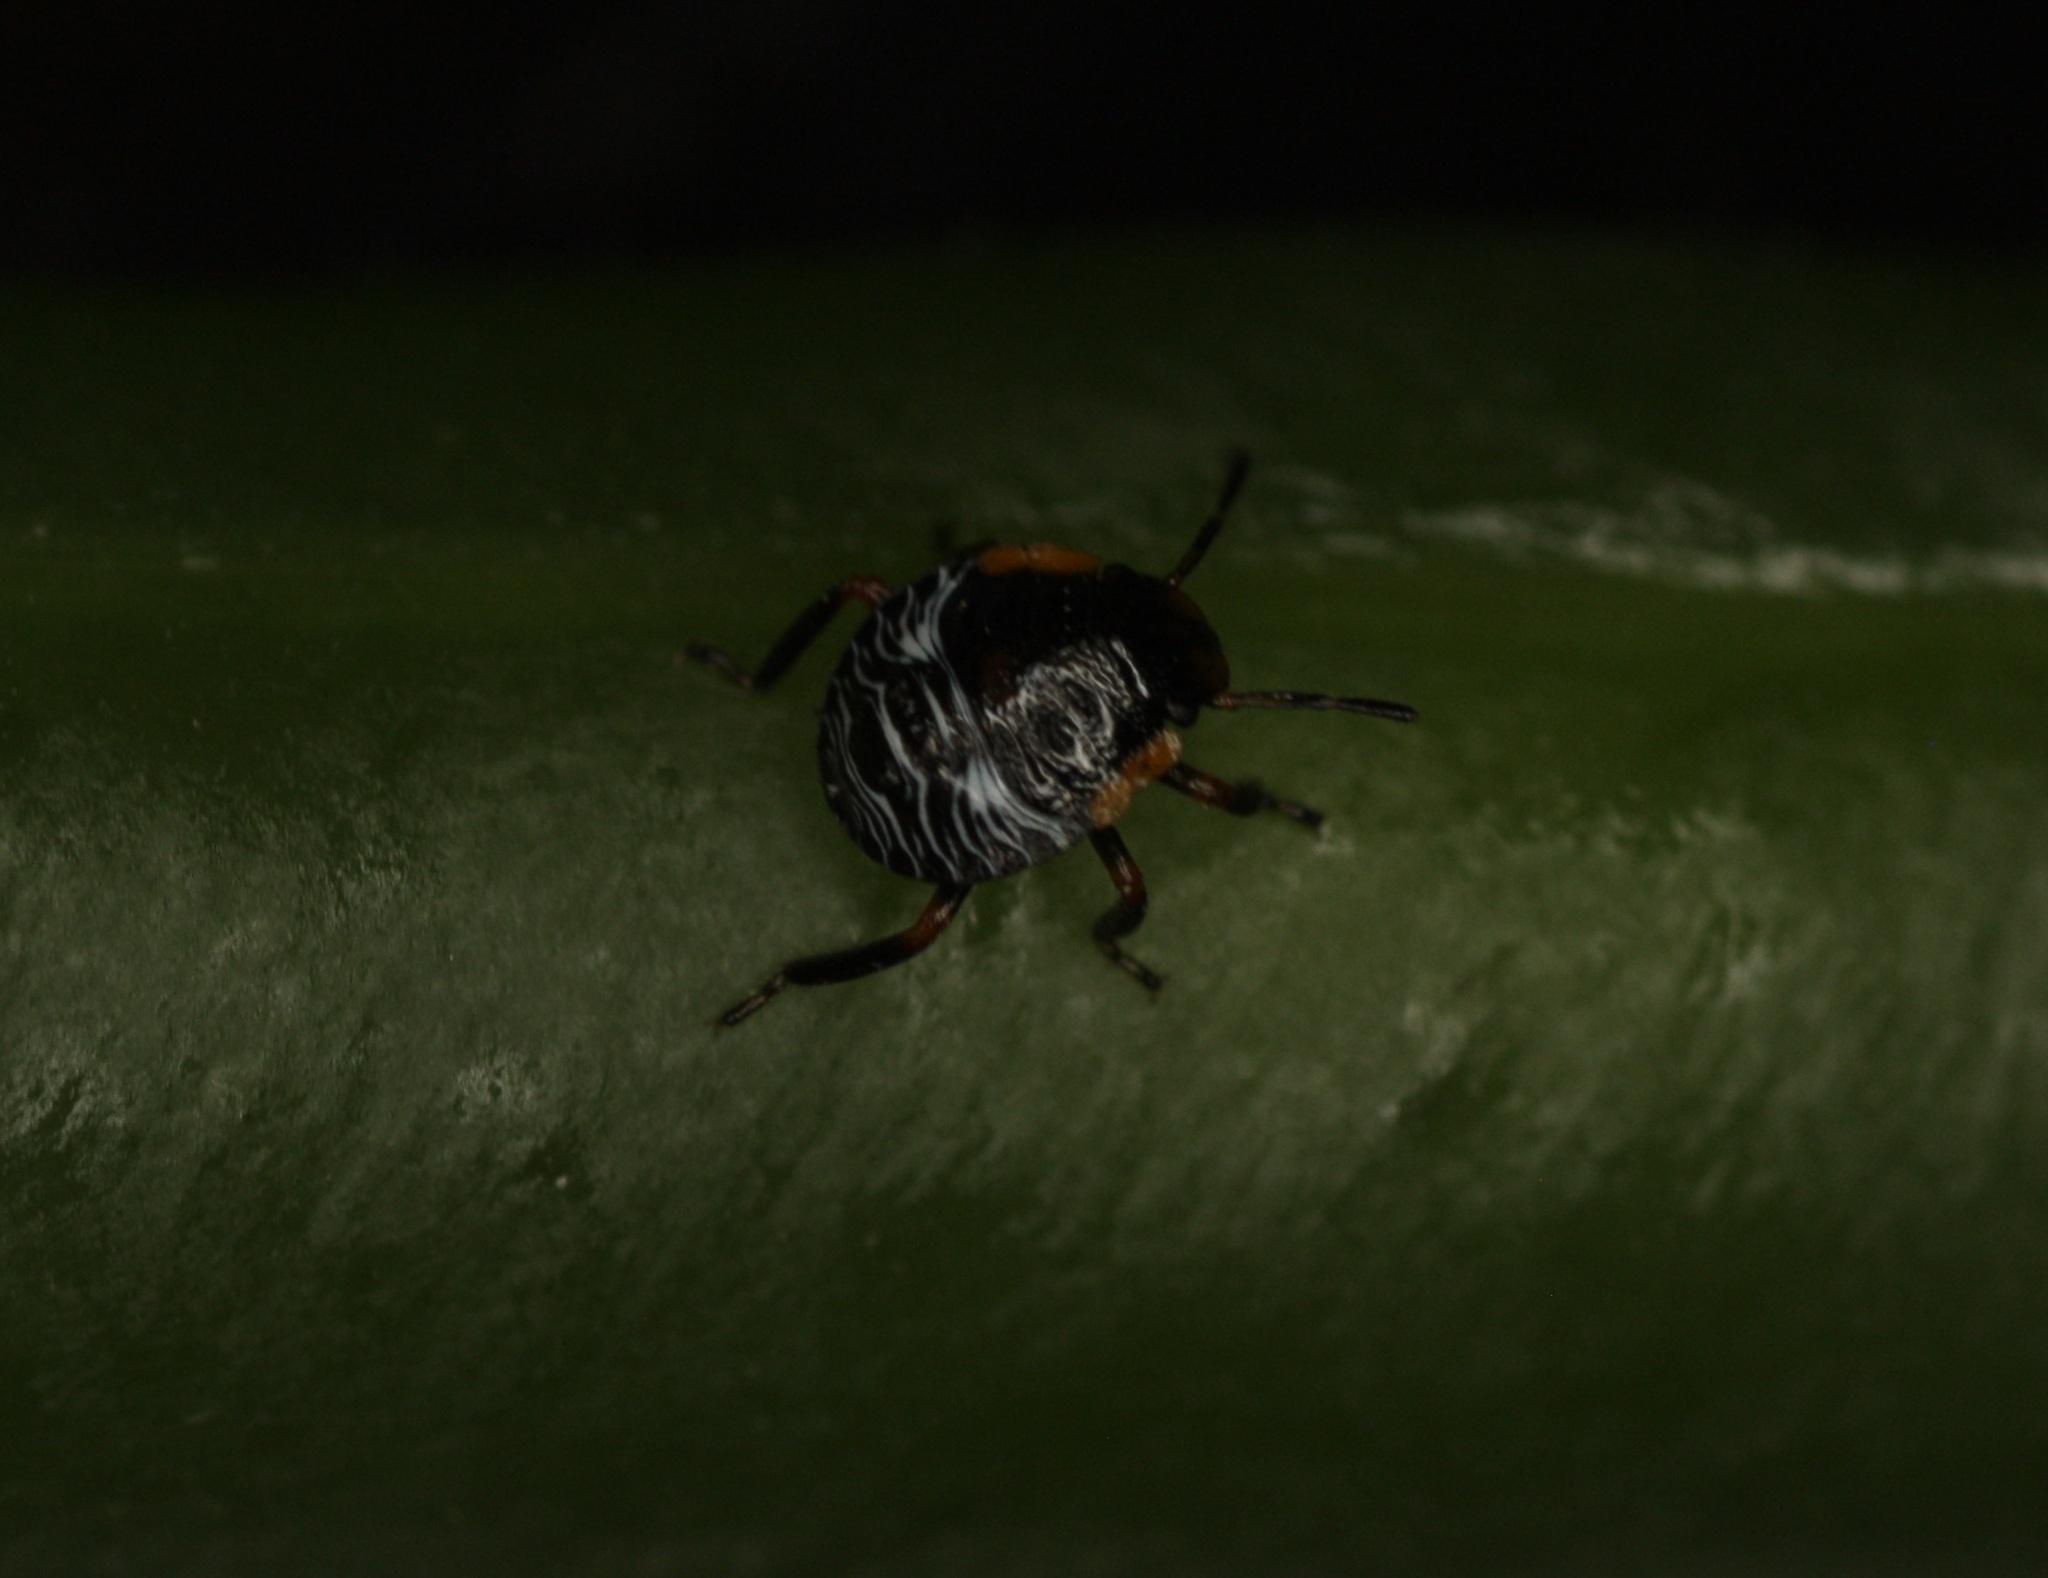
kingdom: Animalia
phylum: Arthropoda
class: Insecta
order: Hemiptera
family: Pentatomidae
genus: Chinavia
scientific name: Chinavia hilaris
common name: Green stink bug
